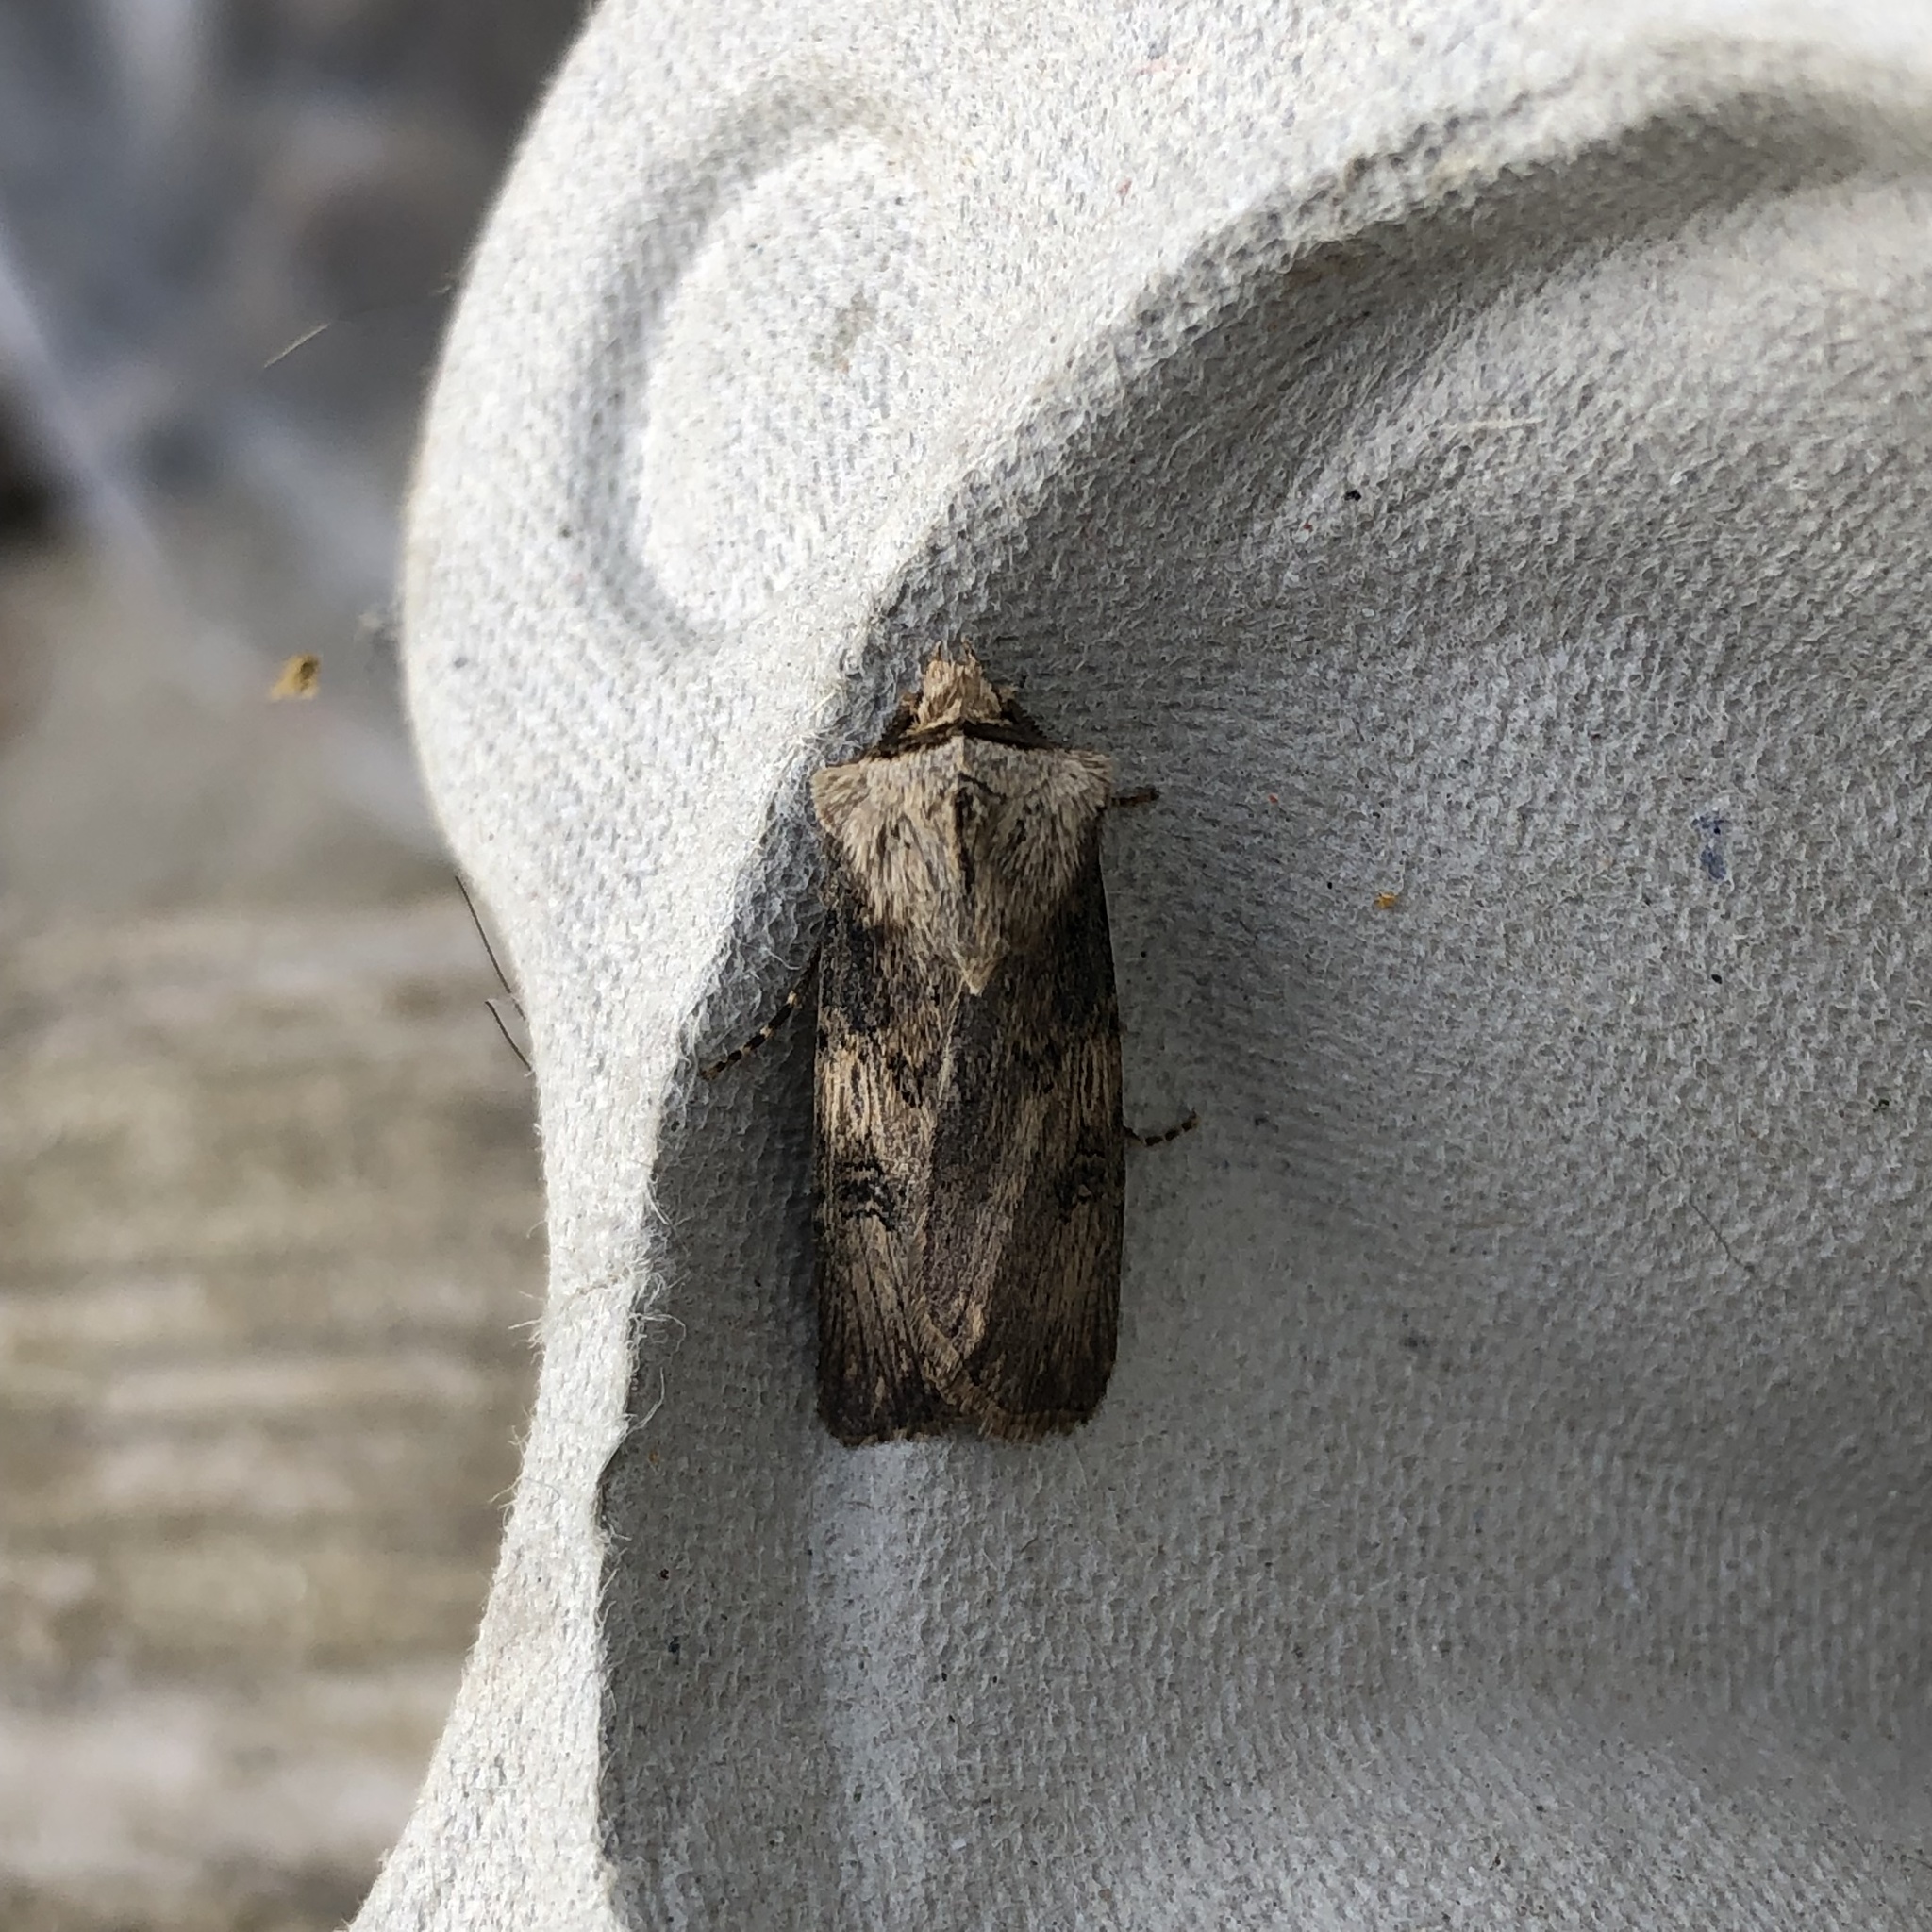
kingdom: Animalia
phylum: Arthropoda
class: Insecta
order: Lepidoptera
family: Noctuidae
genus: Agrotis
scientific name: Agrotis puta
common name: Shuttle-shaped dart
